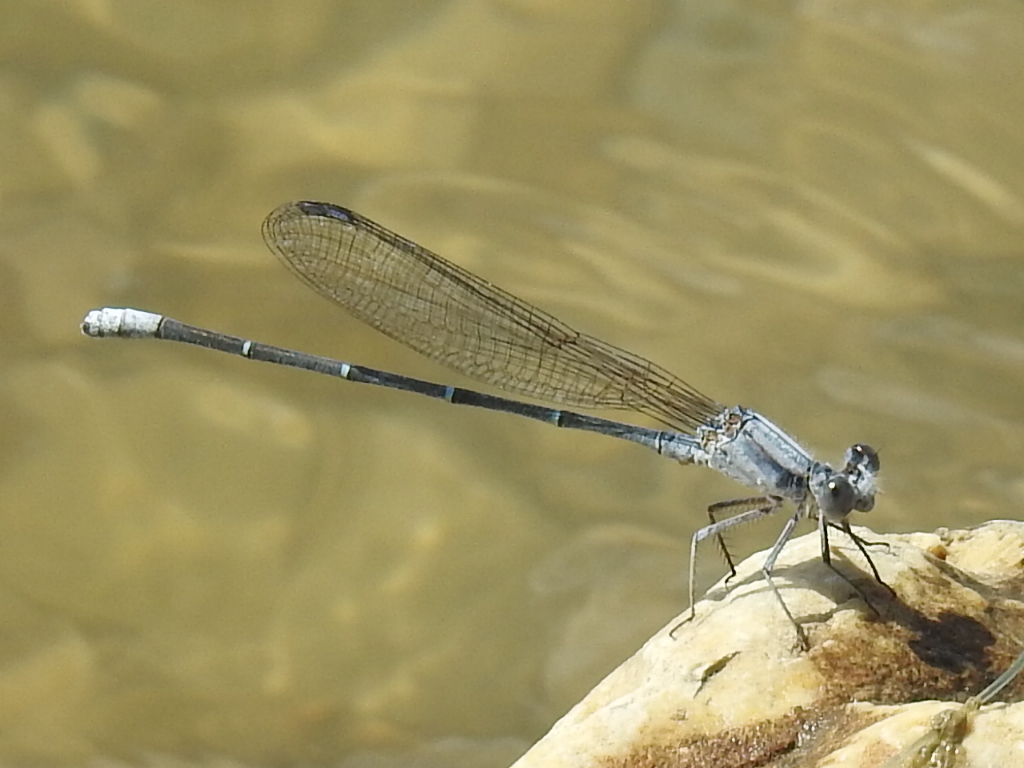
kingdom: Animalia
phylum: Arthropoda
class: Insecta
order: Odonata
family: Coenagrionidae
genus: Argia
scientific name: Argia moesta
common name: Powdered dancer
